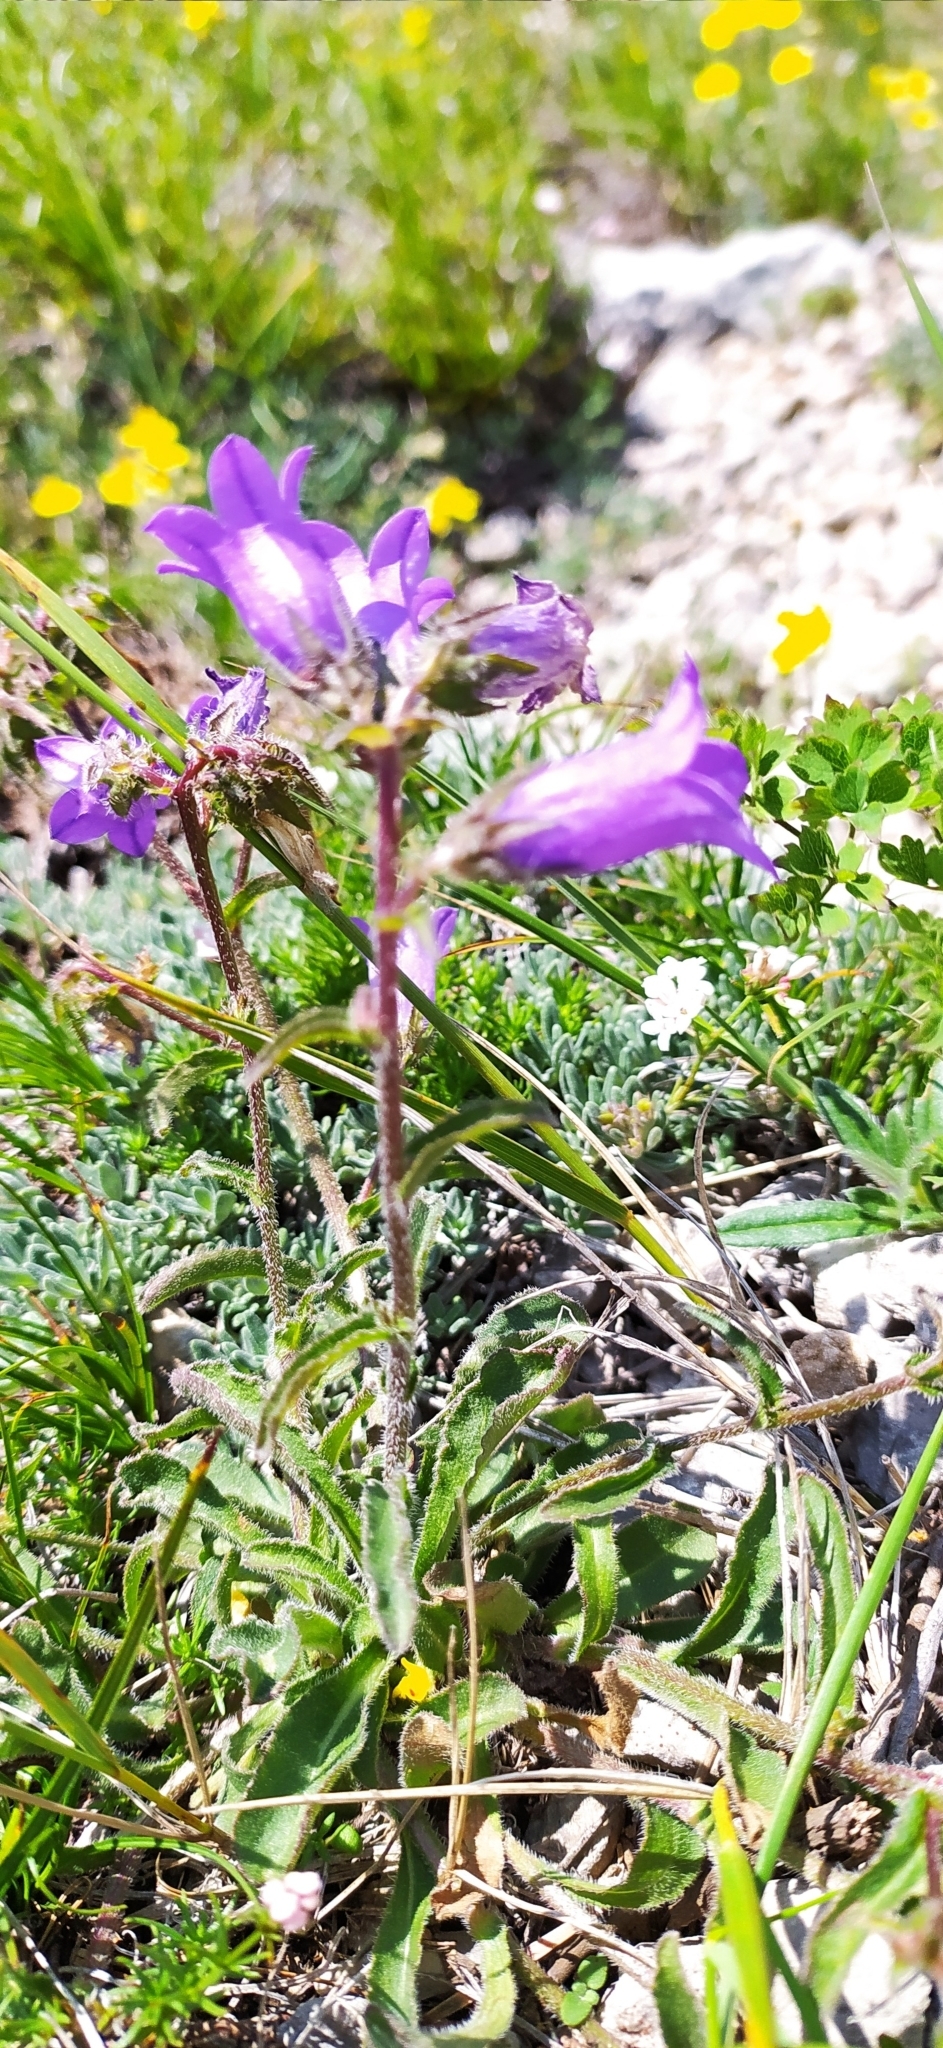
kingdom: Plantae
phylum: Tracheophyta
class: Magnoliopsida
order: Asterales
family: Campanulaceae
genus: Campanula
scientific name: Campanula sibirica
